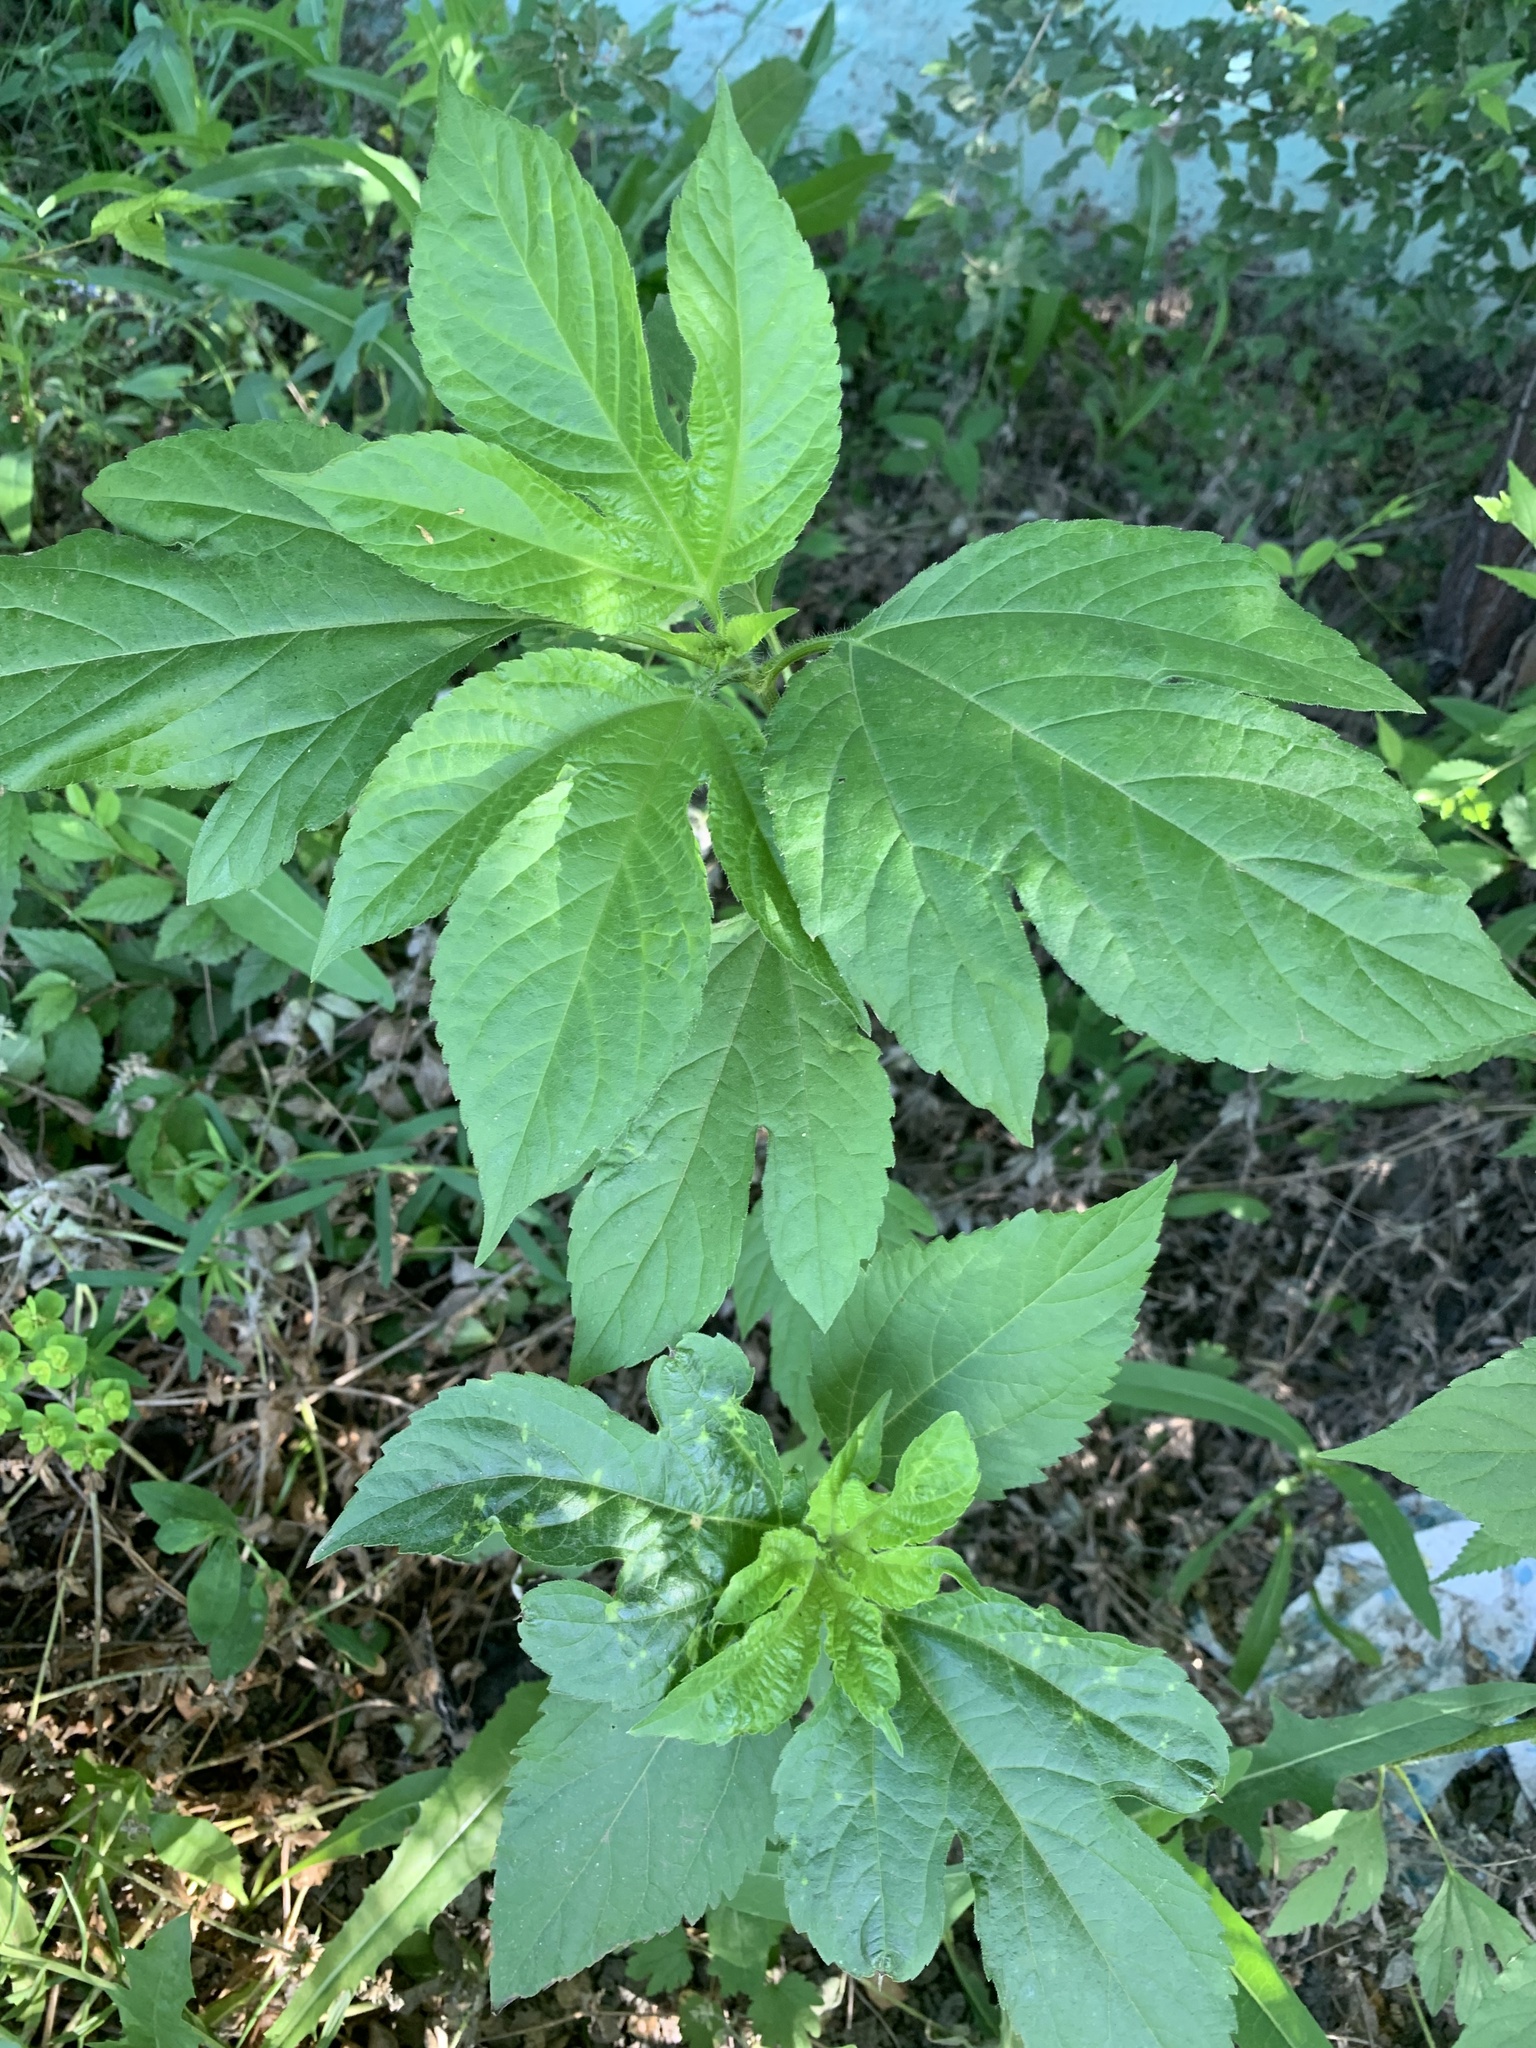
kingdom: Plantae
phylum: Tracheophyta
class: Magnoliopsida
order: Asterales
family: Asteraceae
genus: Ambrosia
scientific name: Ambrosia trifida
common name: Giant ragweed
